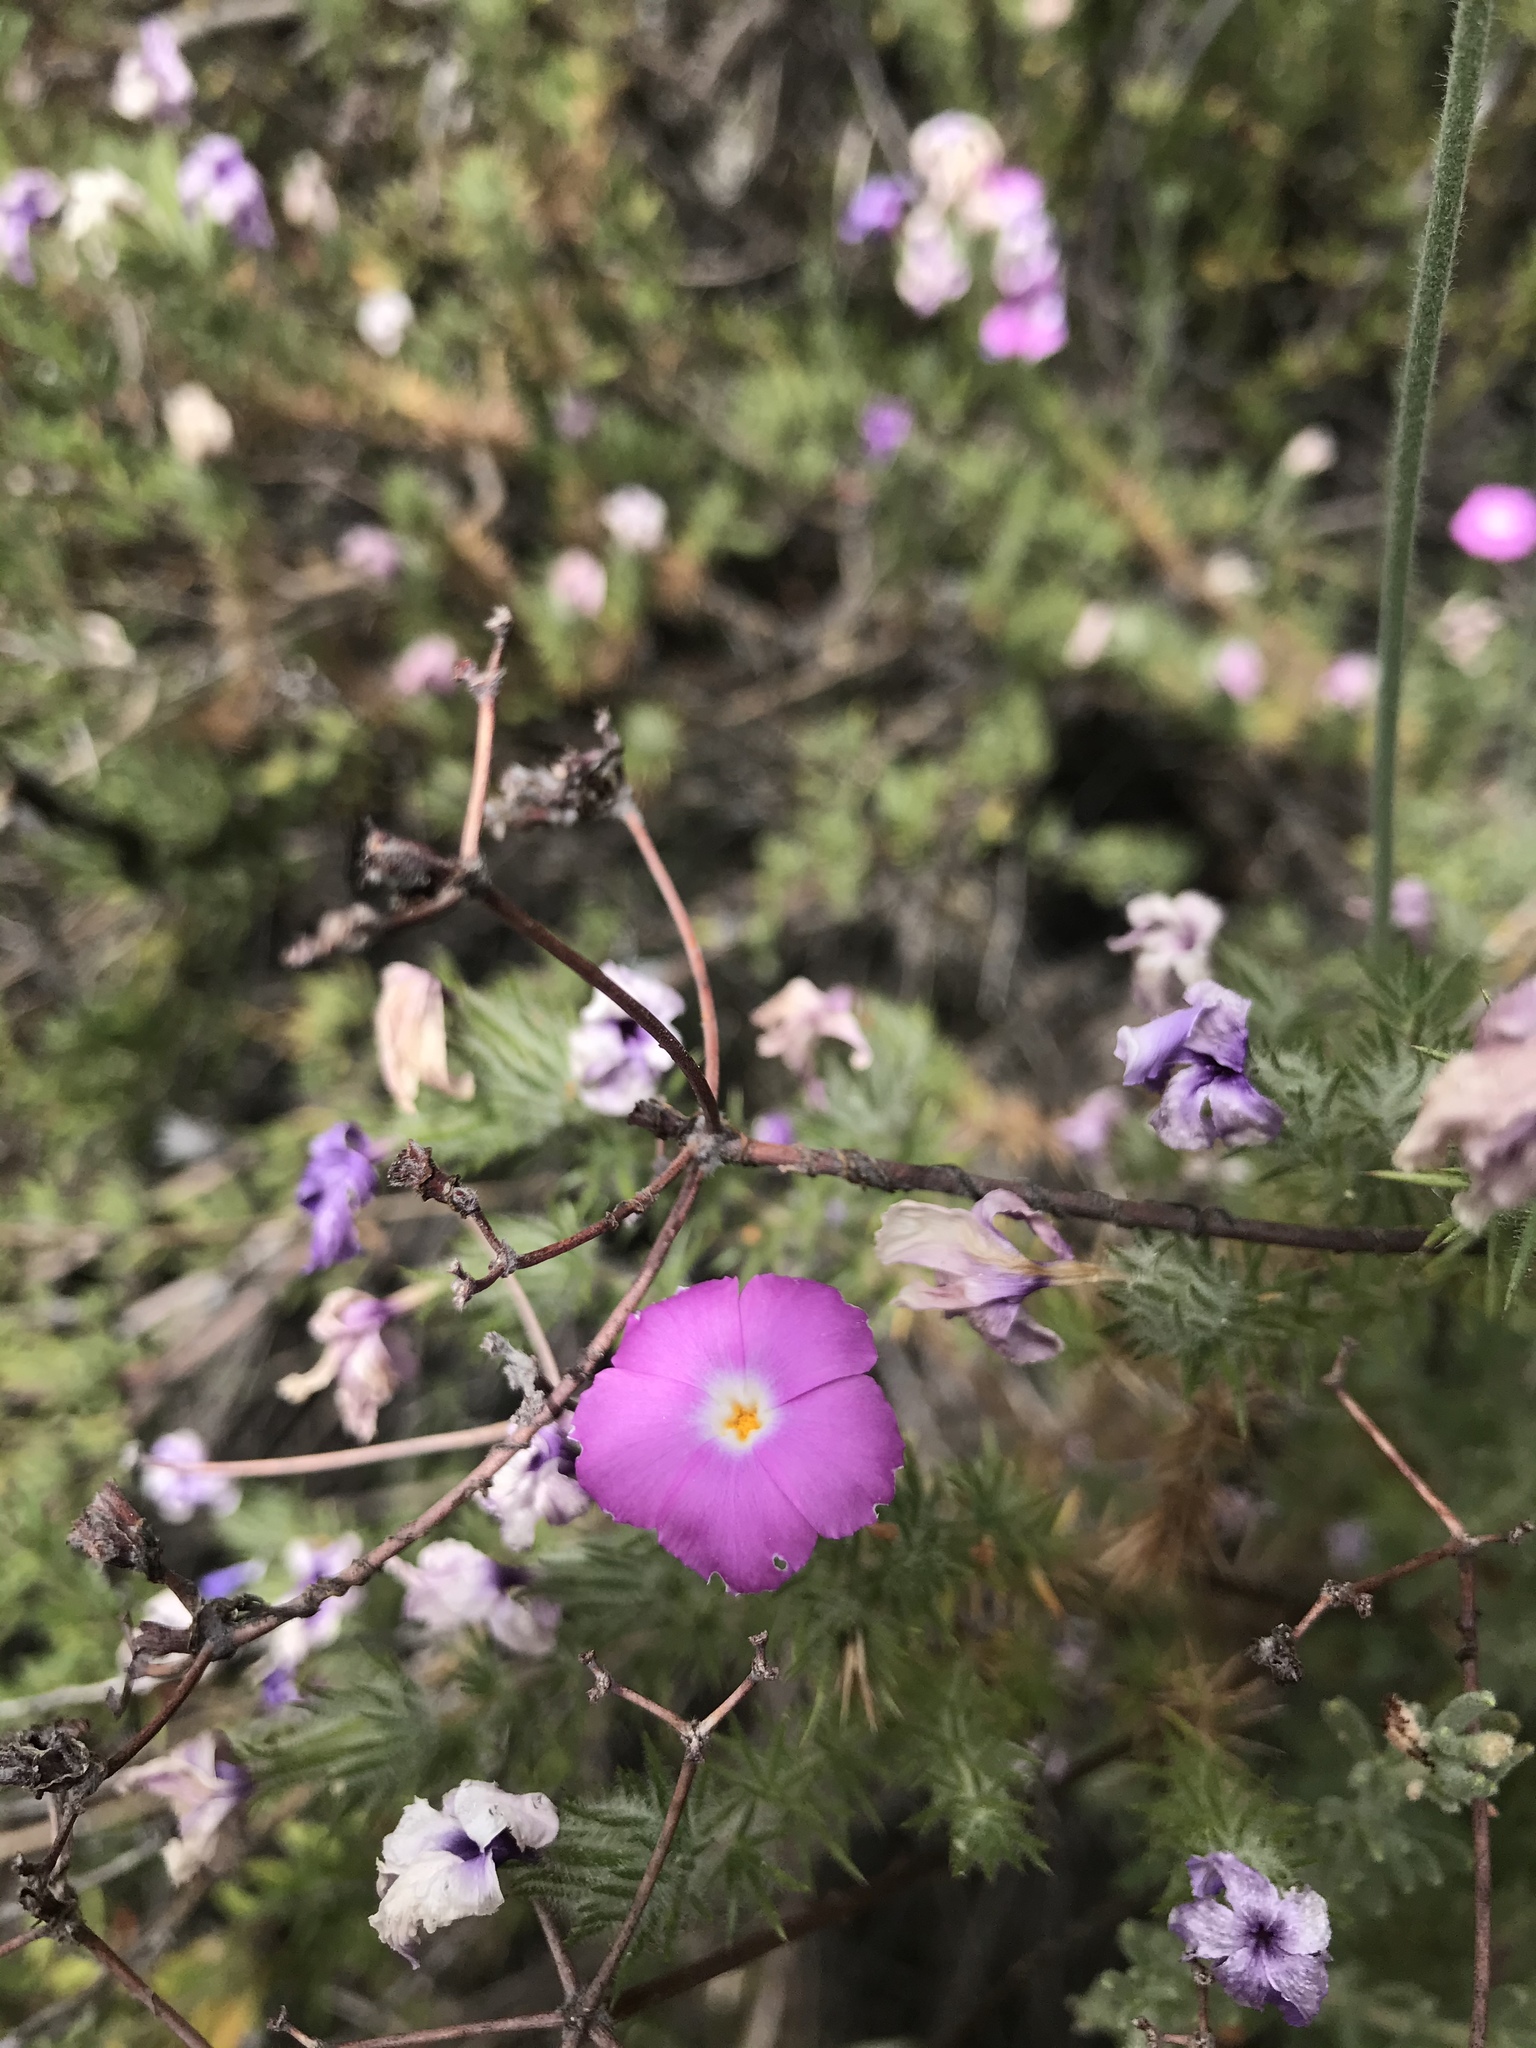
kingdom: Plantae
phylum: Tracheophyta
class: Magnoliopsida
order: Ericales
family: Polemoniaceae
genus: Linanthus
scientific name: Linanthus californicus
